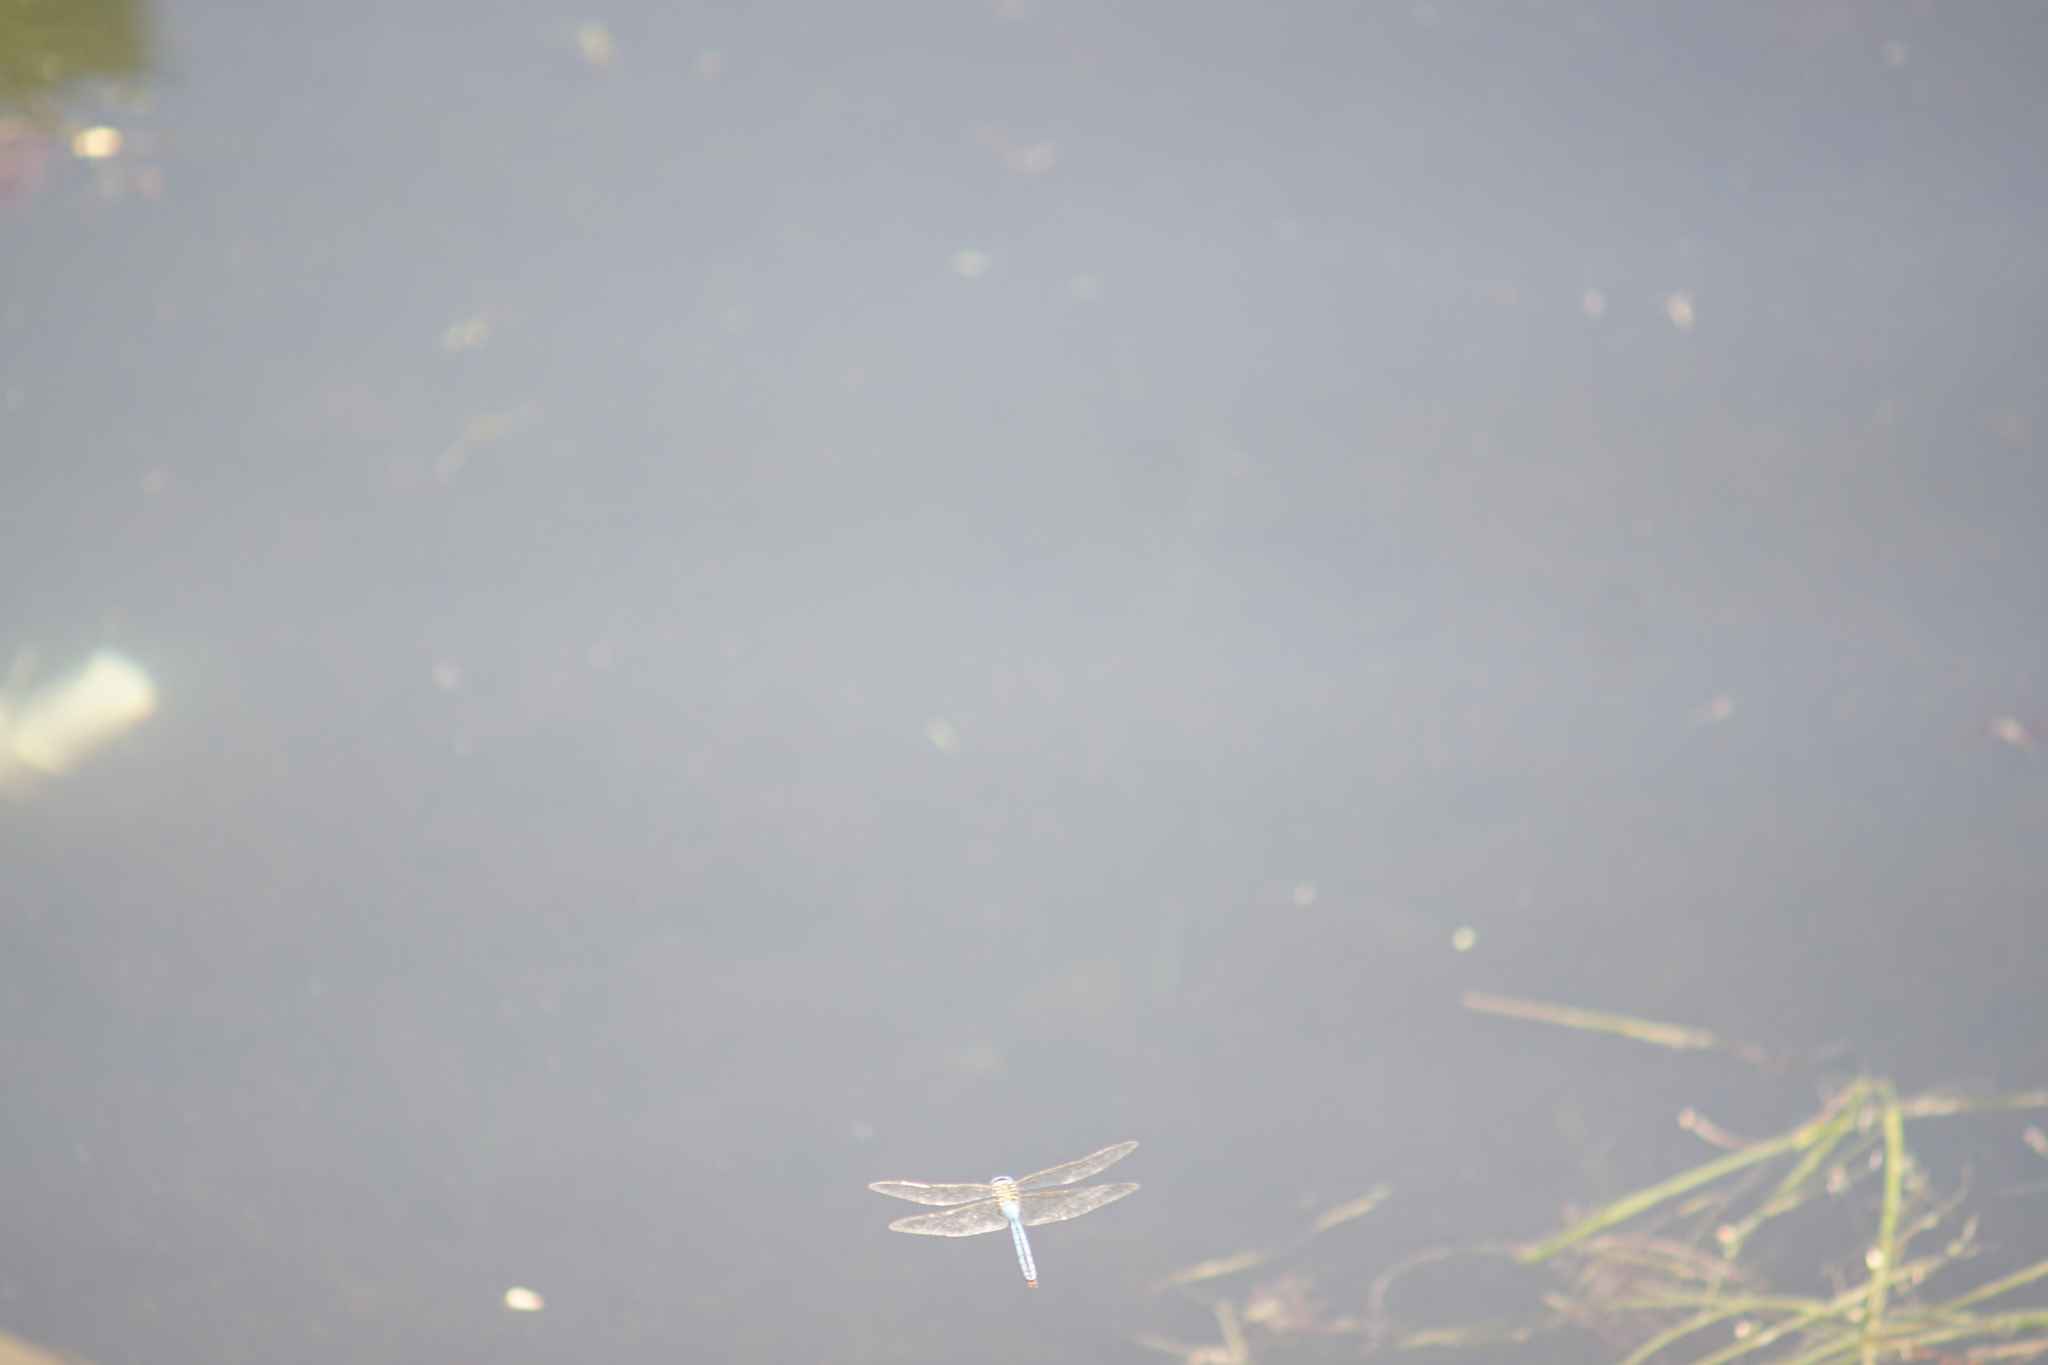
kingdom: Animalia
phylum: Arthropoda
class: Insecta
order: Odonata
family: Aeshnidae
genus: Anax
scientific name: Anax imperator
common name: Emperor dragonfly
